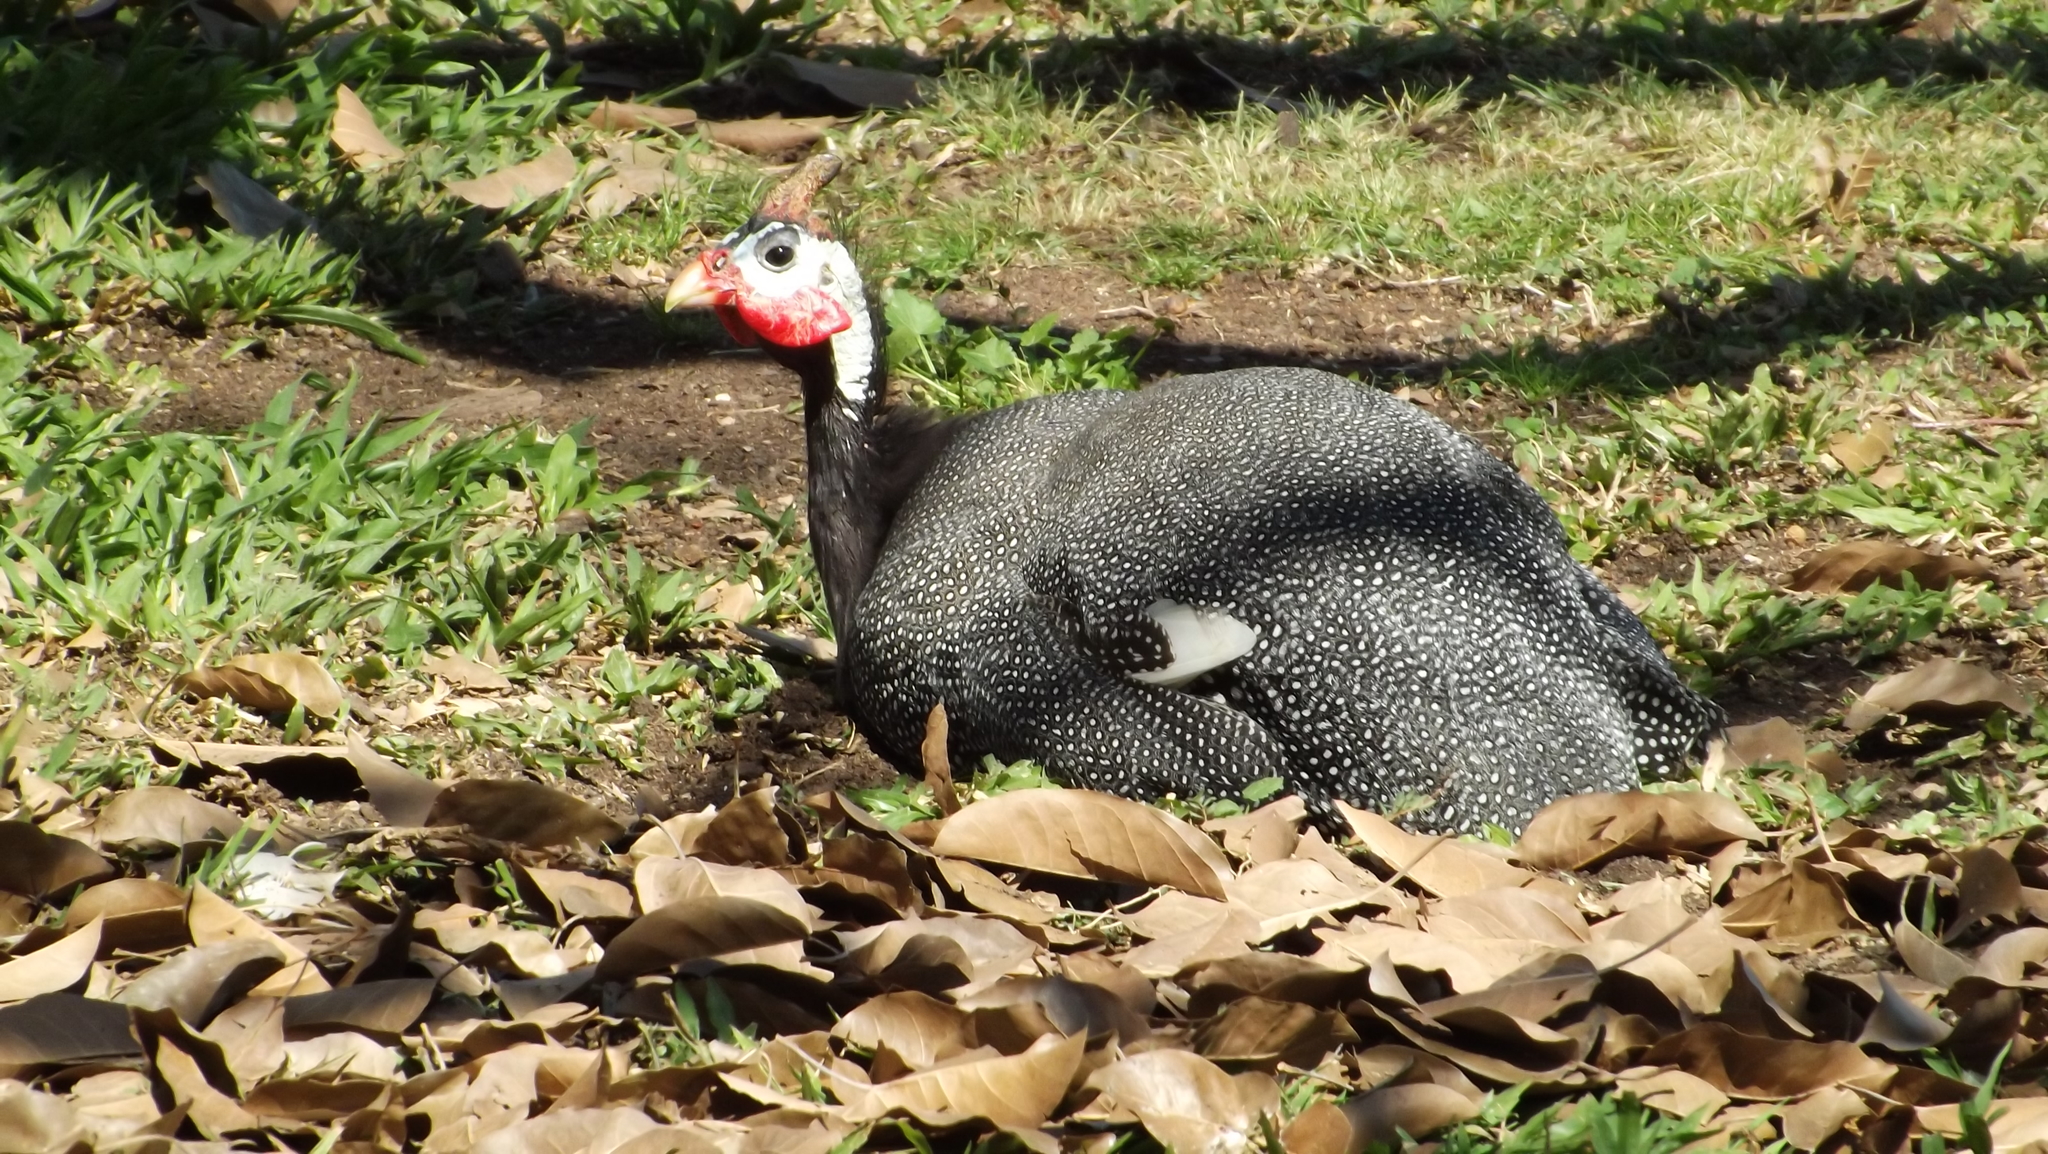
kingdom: Animalia
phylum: Chordata
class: Aves
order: Galliformes
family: Numididae
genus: Numida
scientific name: Numida meleagris
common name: Helmeted guineafowl
